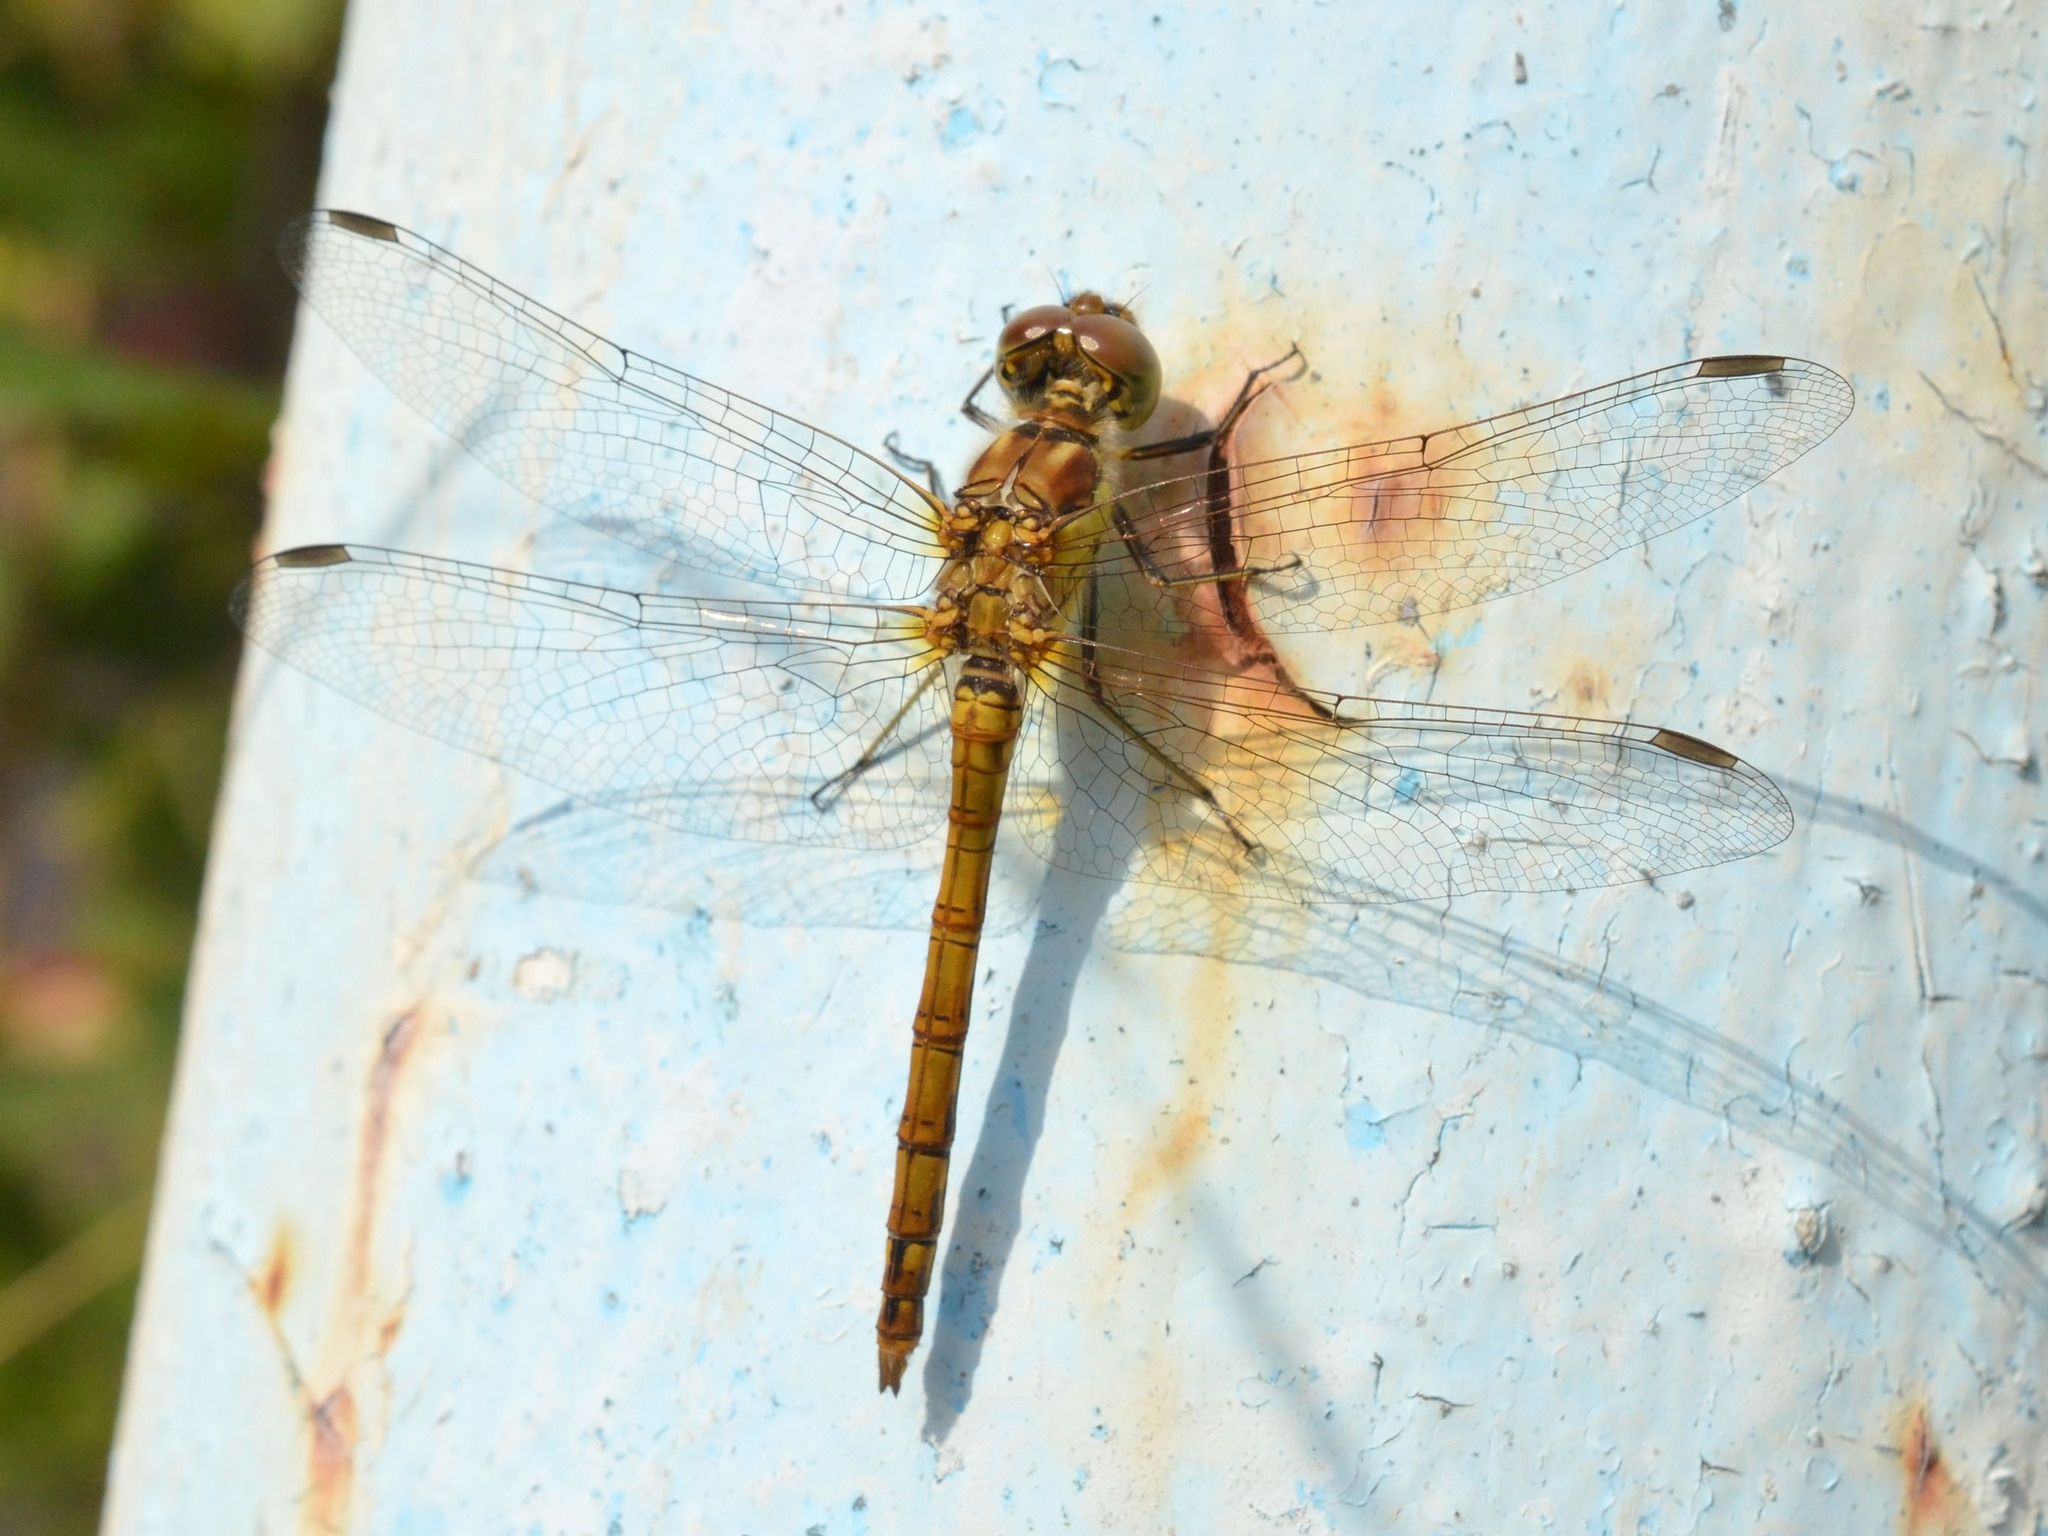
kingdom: Animalia
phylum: Arthropoda
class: Insecta
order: Odonata
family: Libellulidae
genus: Sympetrum
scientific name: Sympetrum striolatum
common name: Common darter
